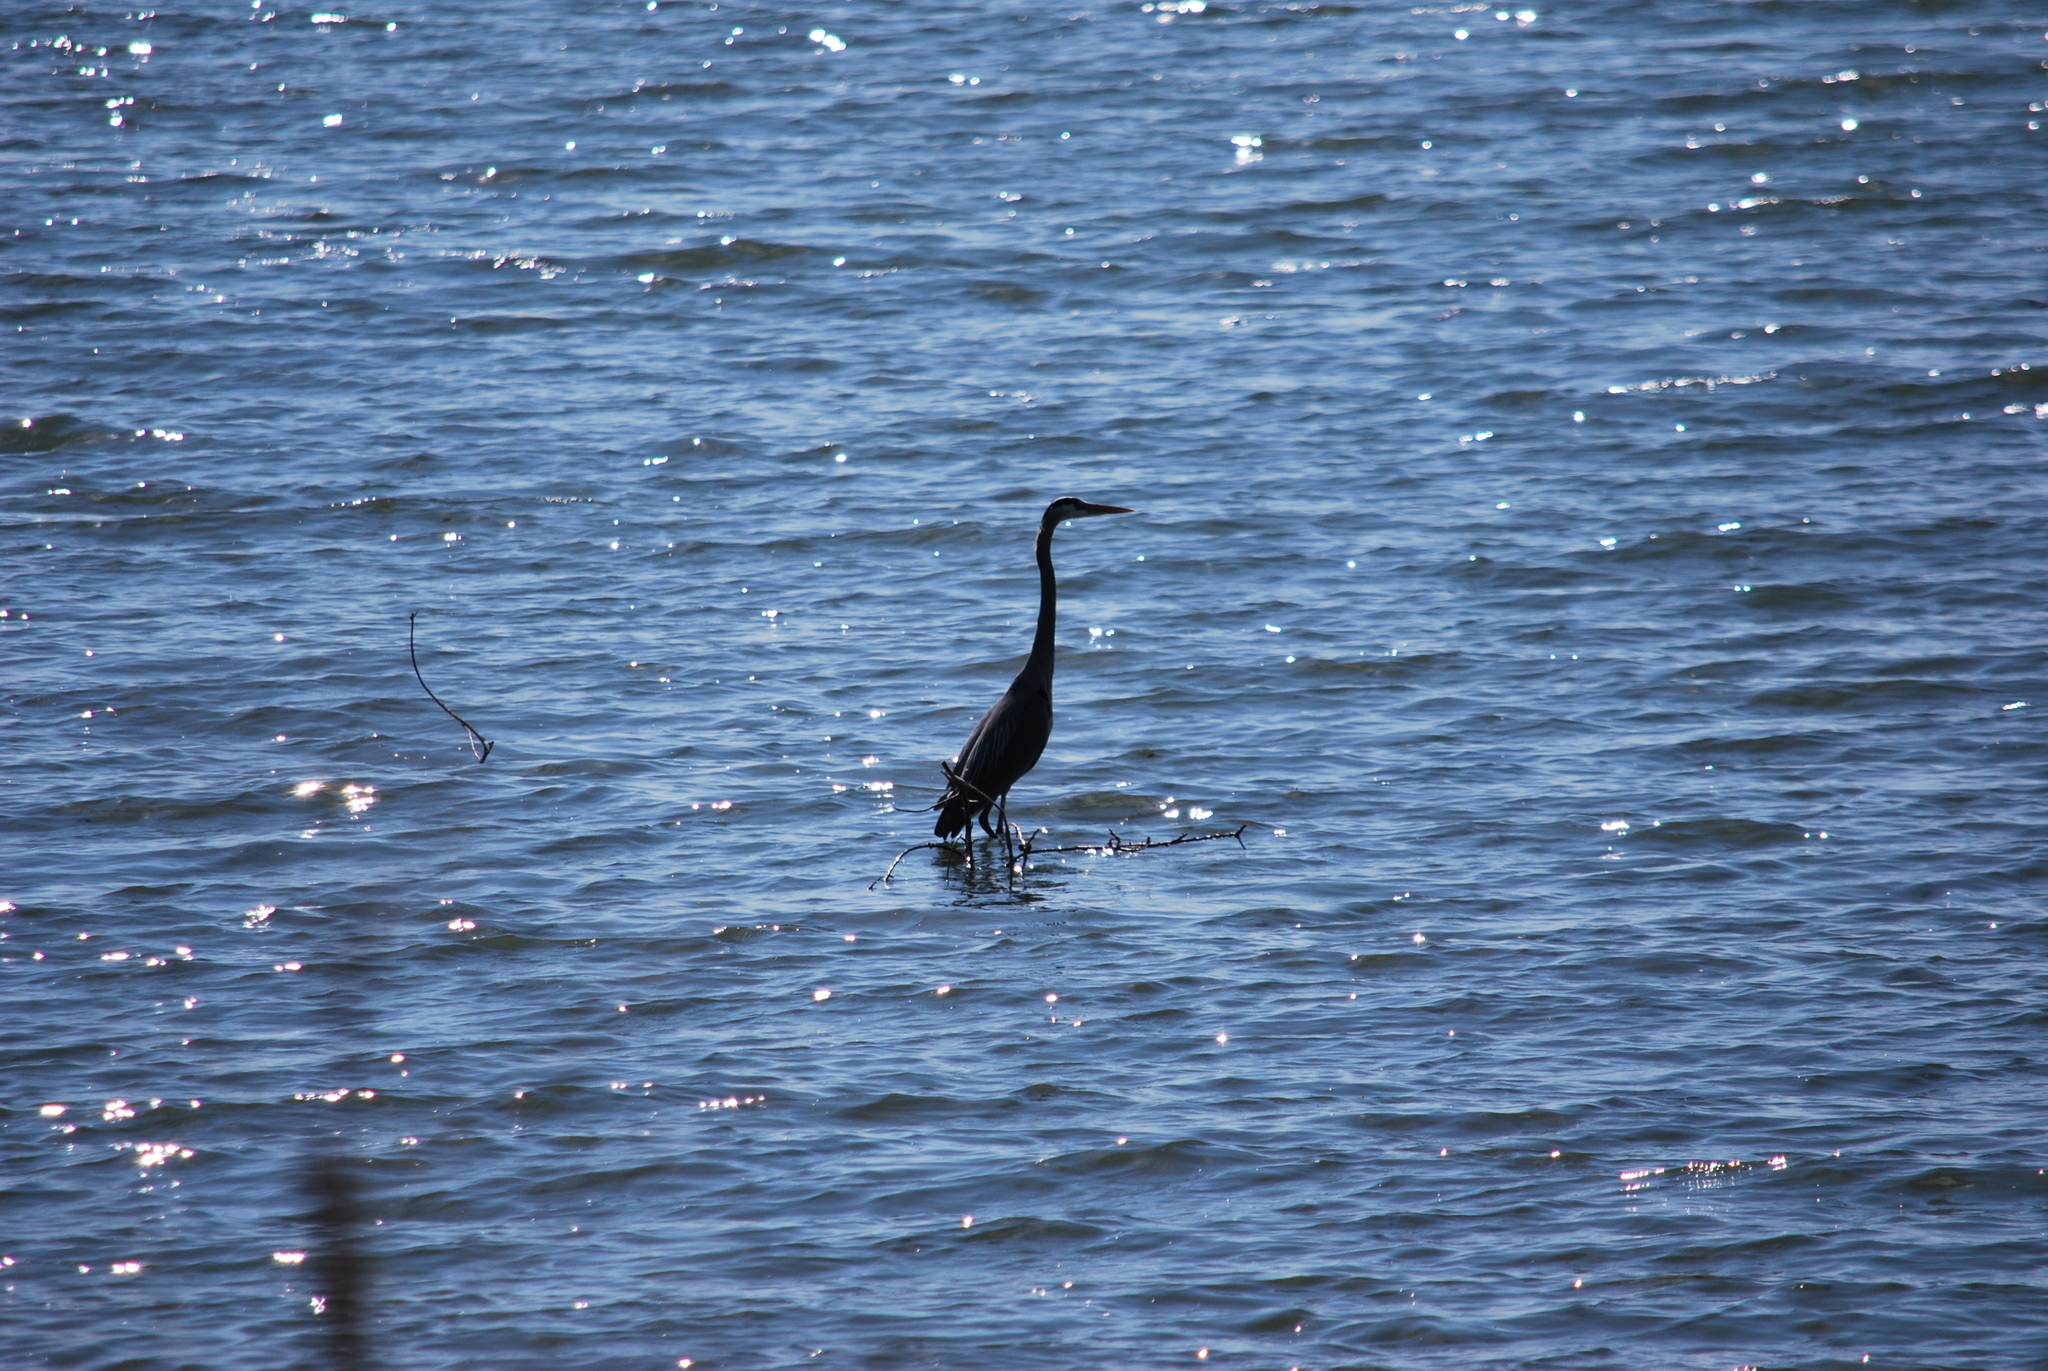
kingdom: Animalia
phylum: Chordata
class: Aves
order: Pelecaniformes
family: Ardeidae
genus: Ardea
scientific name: Ardea herodias
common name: Great blue heron
